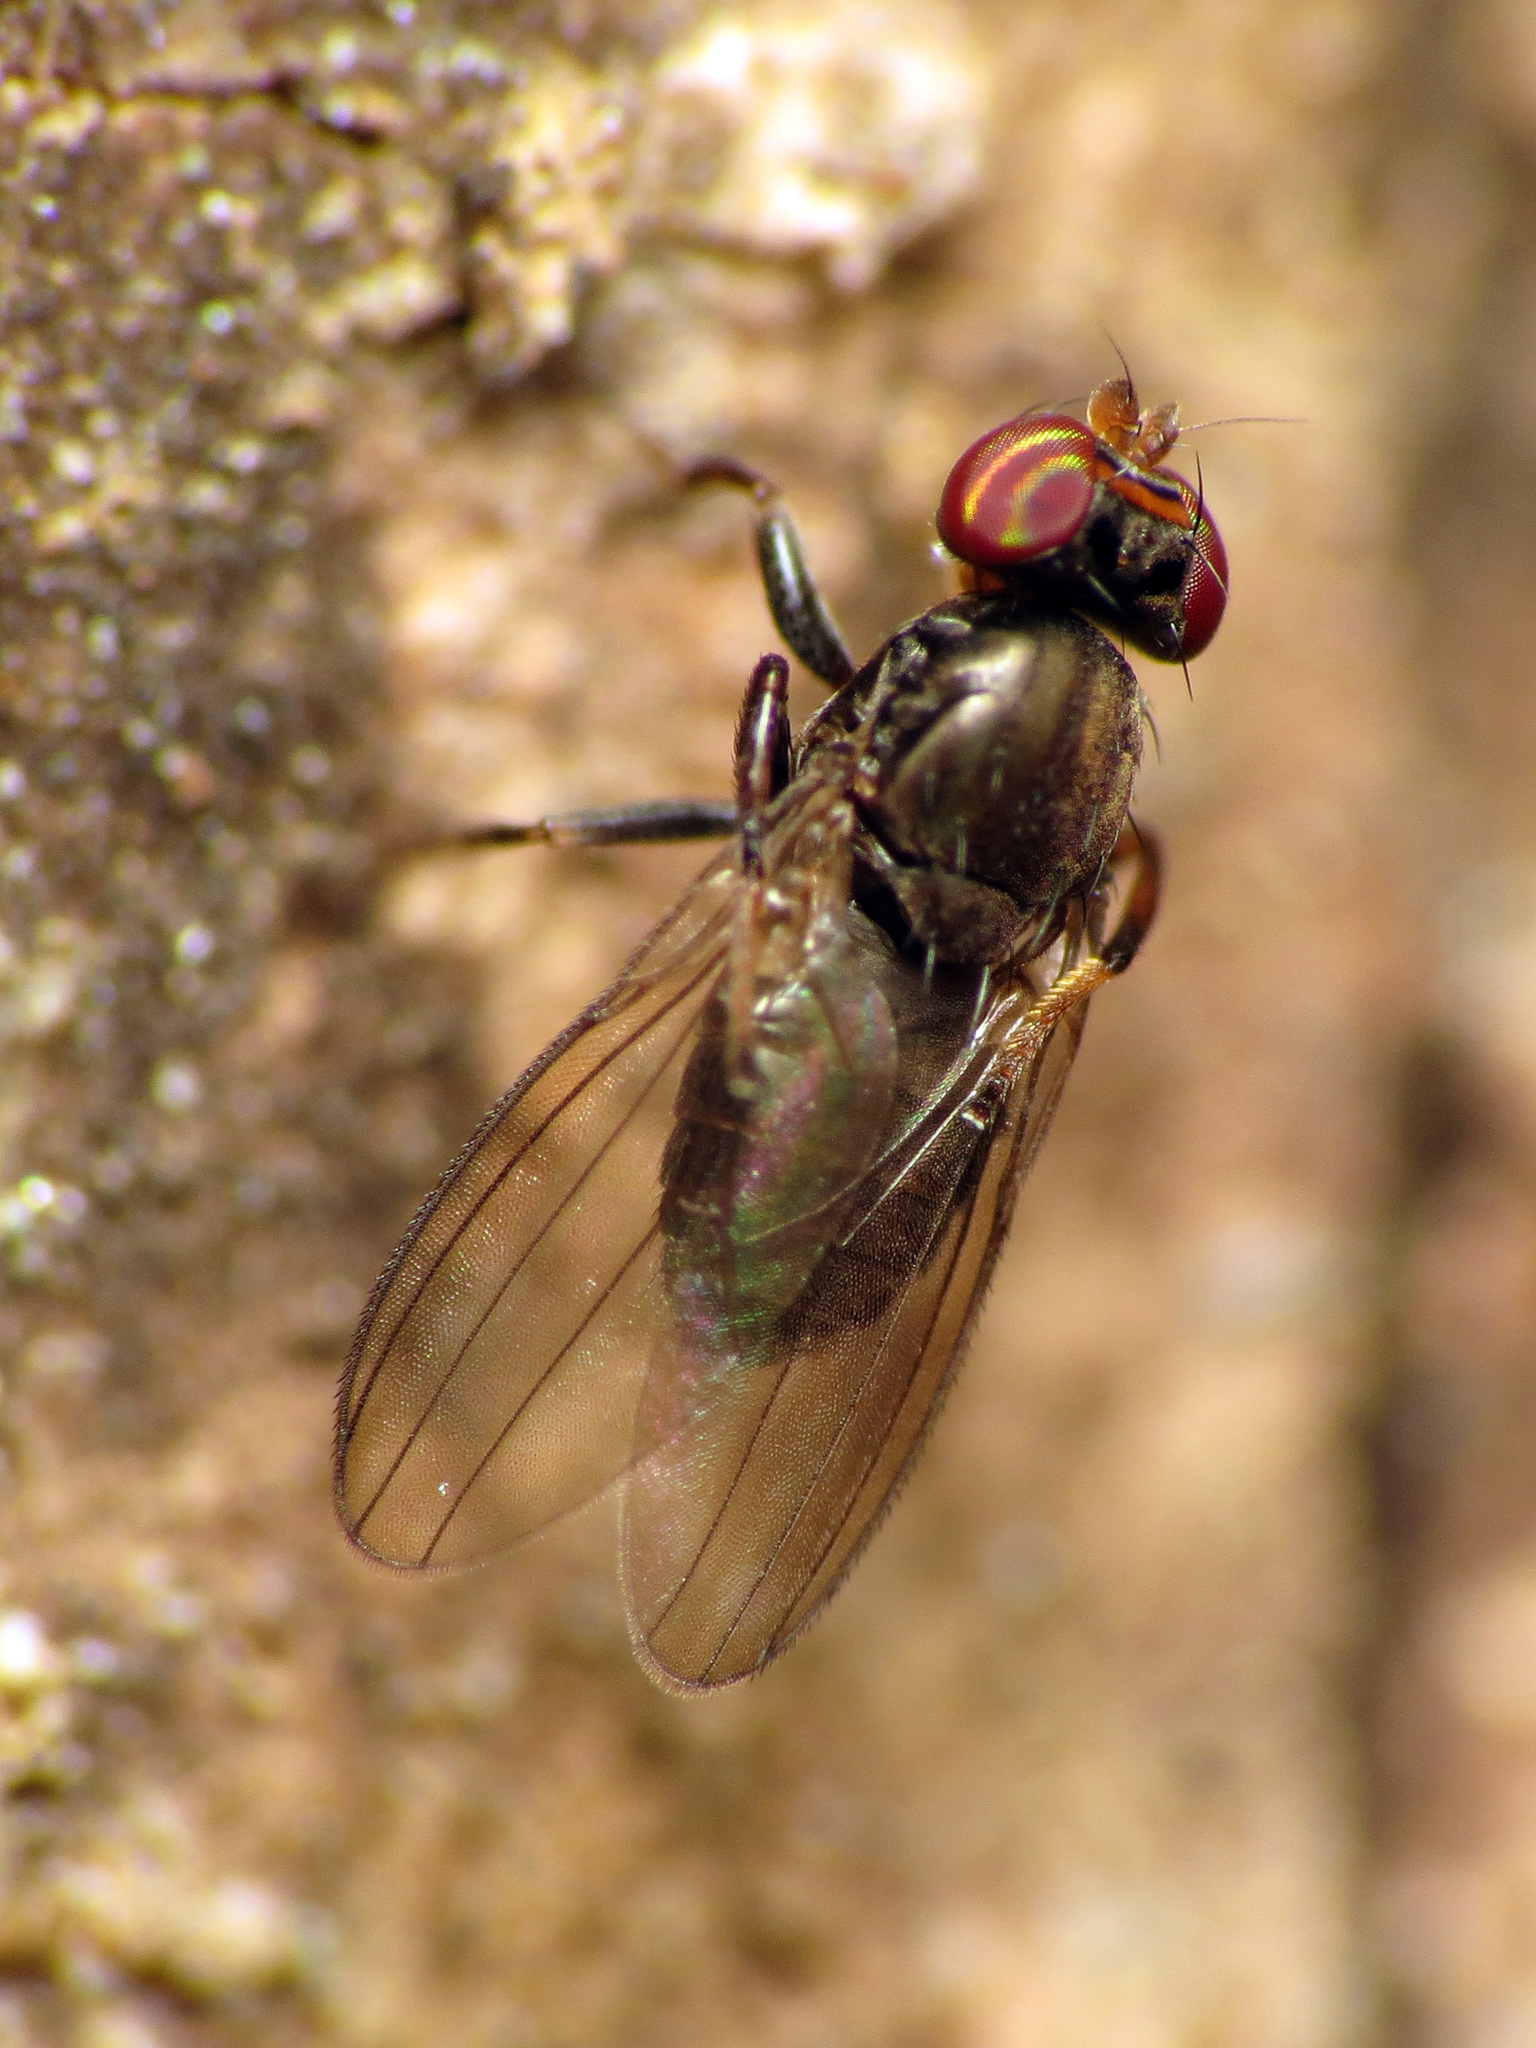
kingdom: Animalia
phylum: Arthropoda
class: Insecta
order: Diptera
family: Aulacigastridae
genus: Aulacigaster
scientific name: Aulacigaster neoleucopeza
